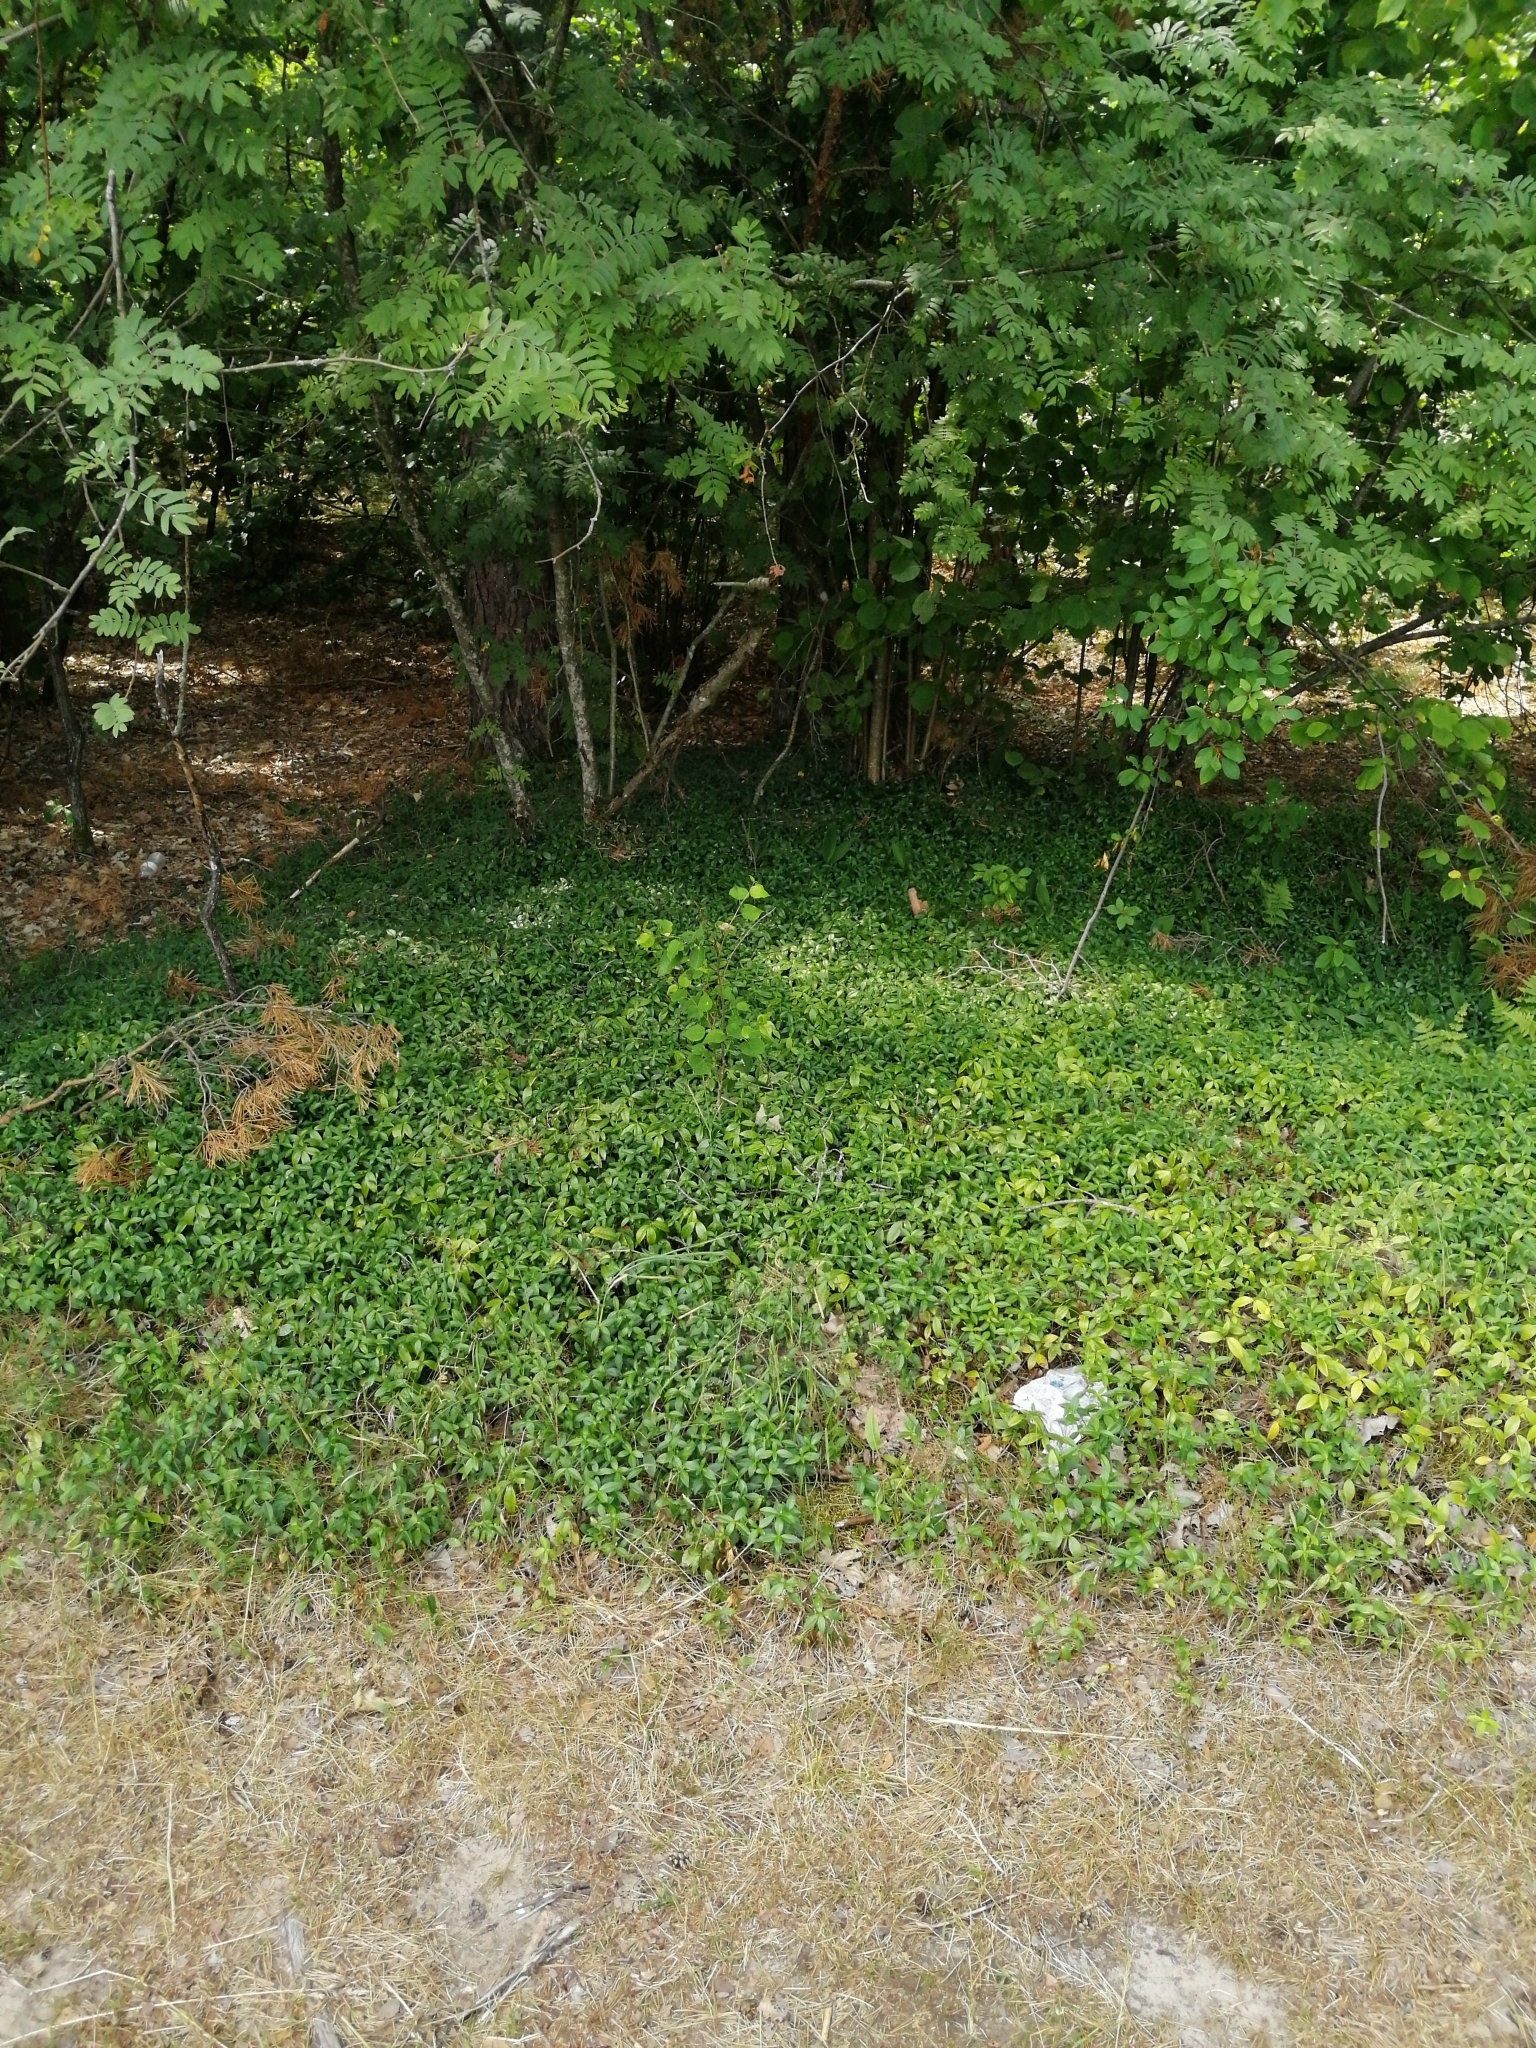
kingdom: Plantae
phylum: Tracheophyta
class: Magnoliopsida
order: Gentianales
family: Apocynaceae
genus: Vinca
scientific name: Vinca minor
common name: Lesser periwinkle
